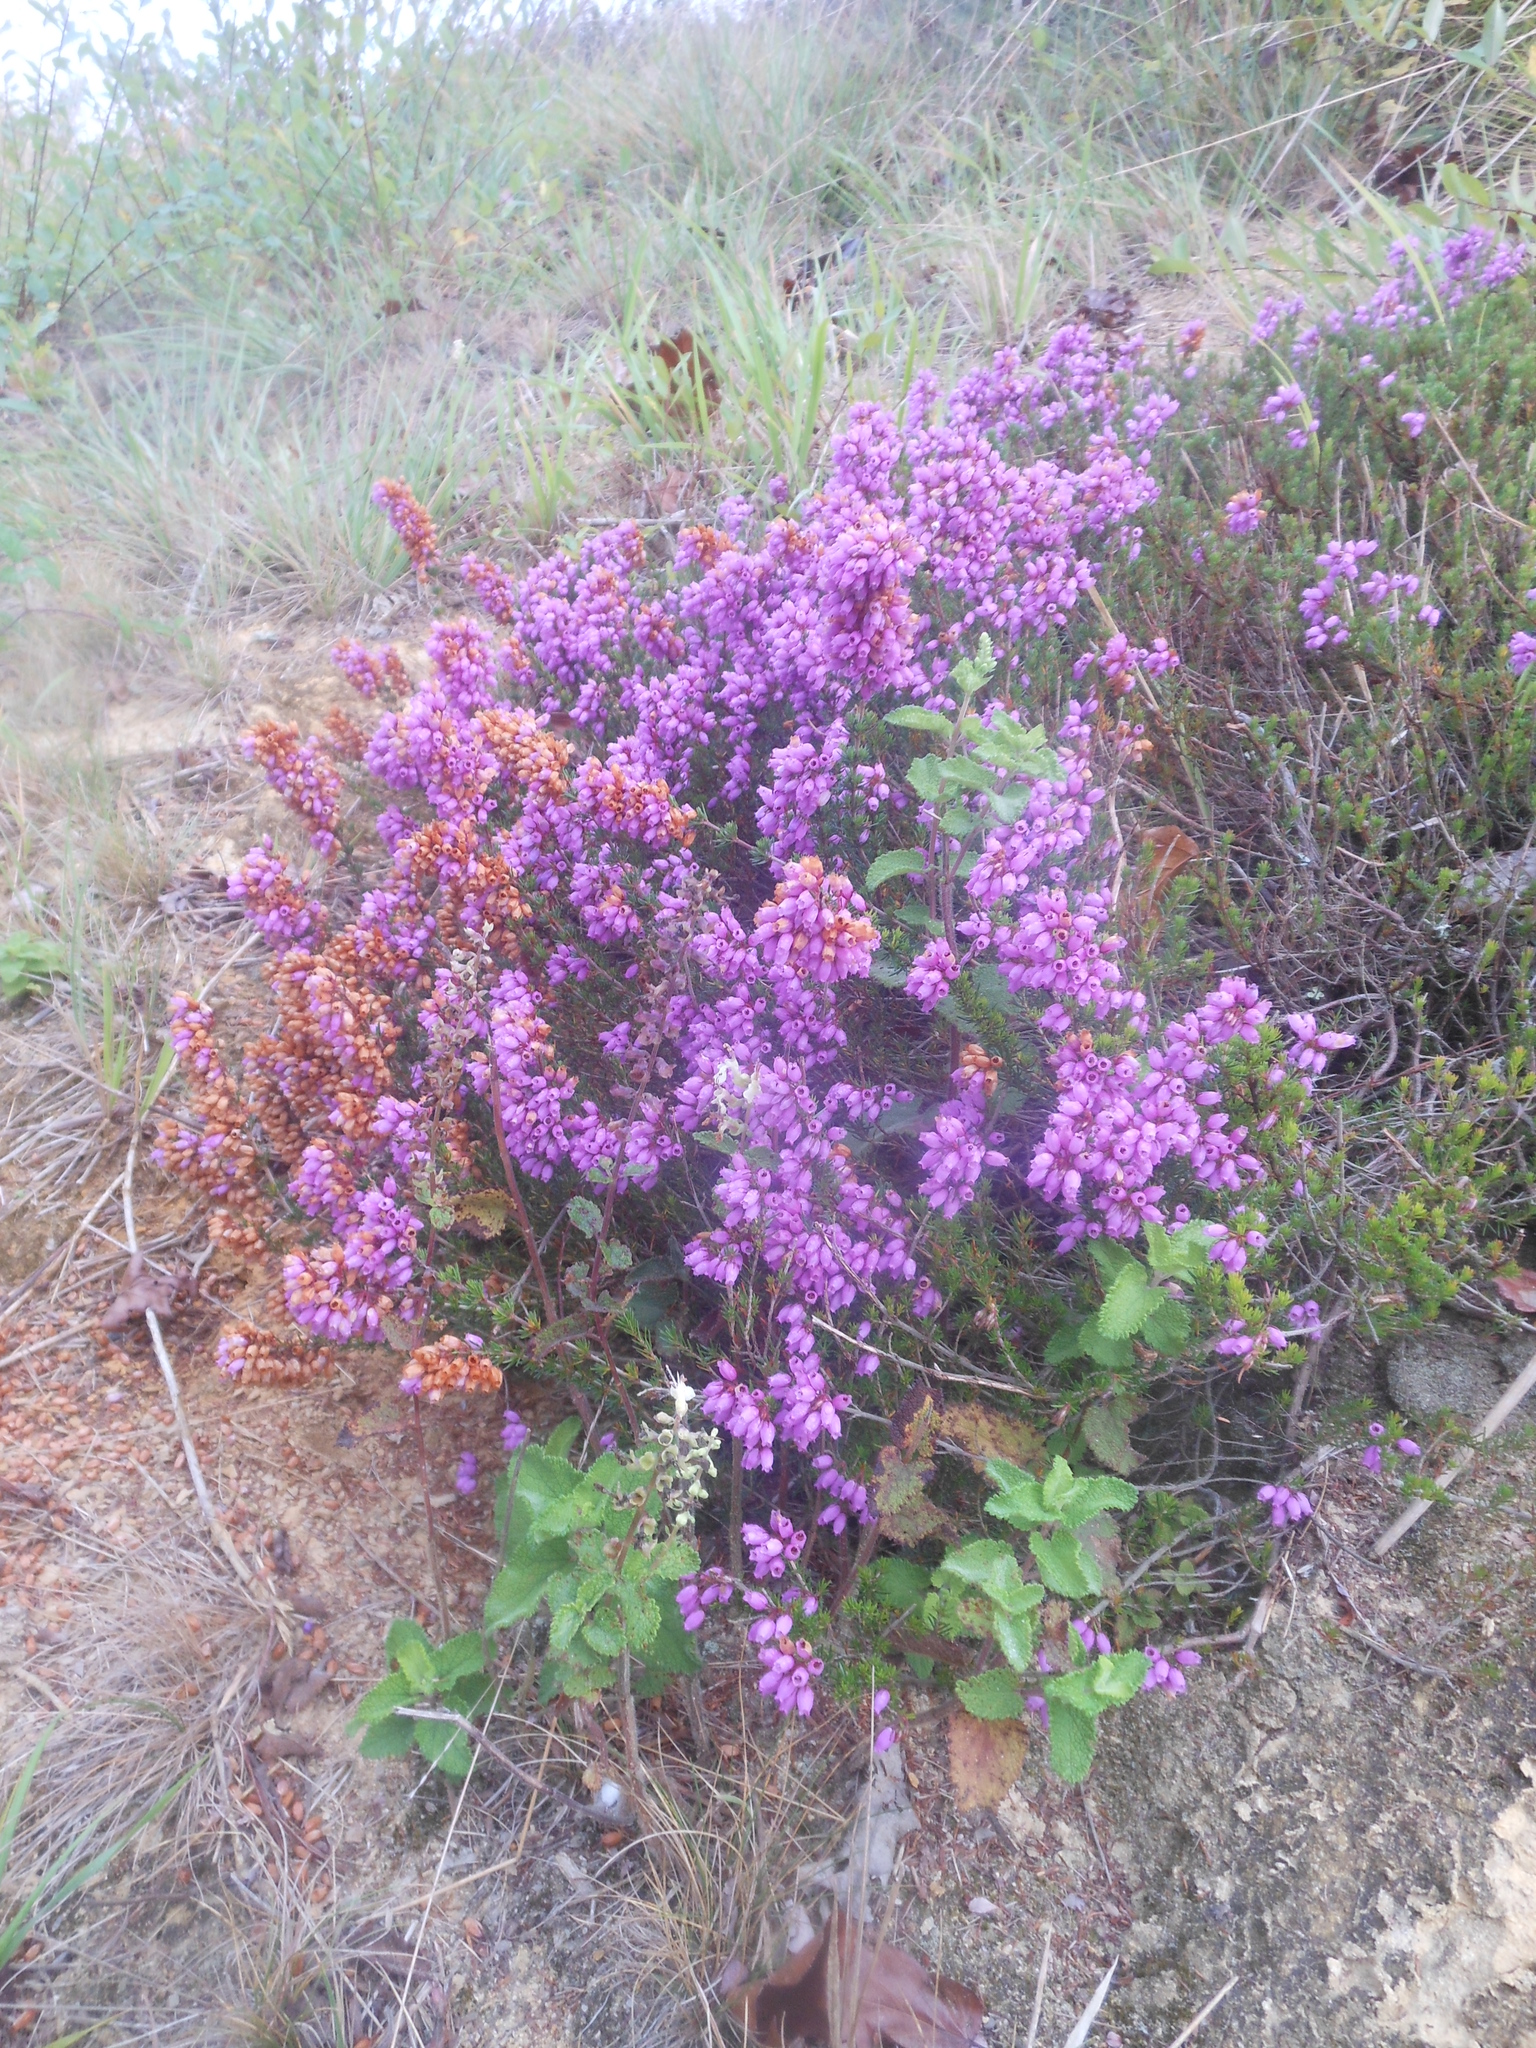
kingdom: Plantae
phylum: Tracheophyta
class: Magnoliopsida
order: Ericales
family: Ericaceae
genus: Erica
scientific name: Erica cinerea
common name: Bell heather
